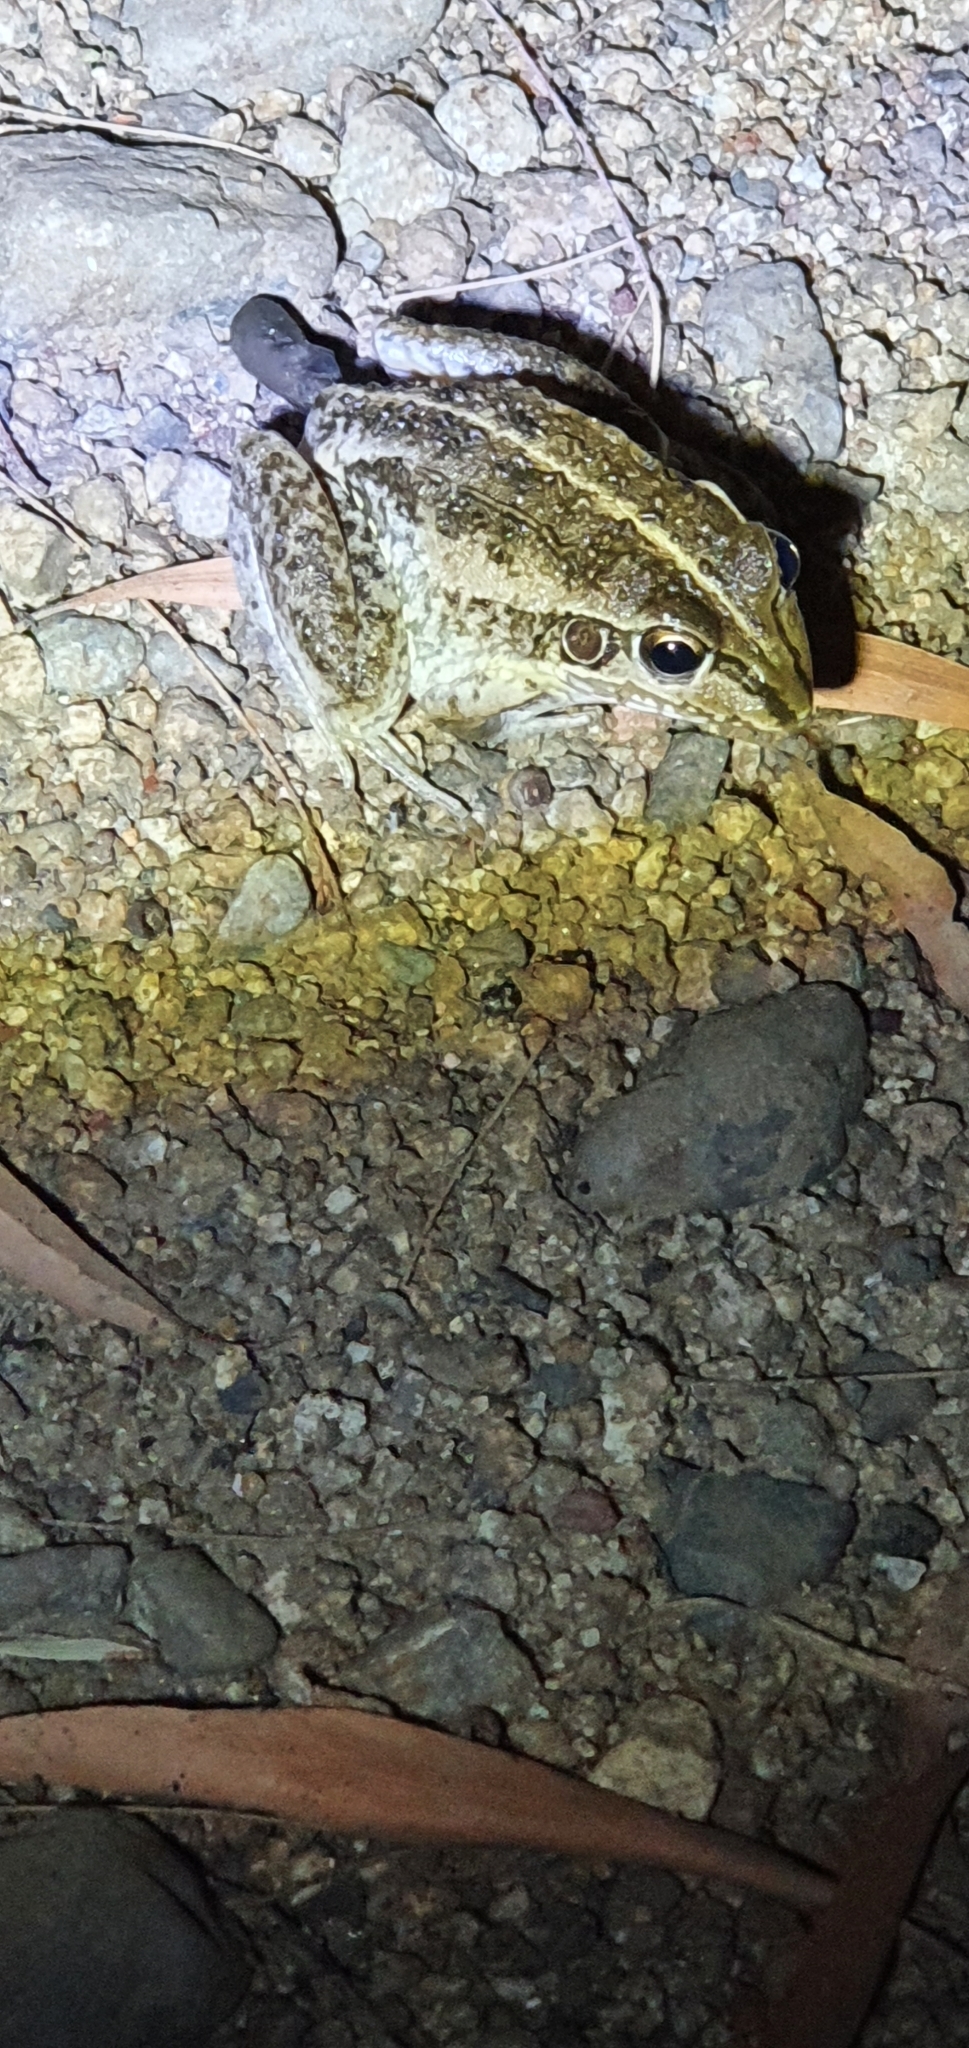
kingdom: Animalia
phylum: Chordata
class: Amphibia
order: Anura
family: Pelodryadidae
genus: Ranoidea
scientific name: Ranoidea alboguttata
